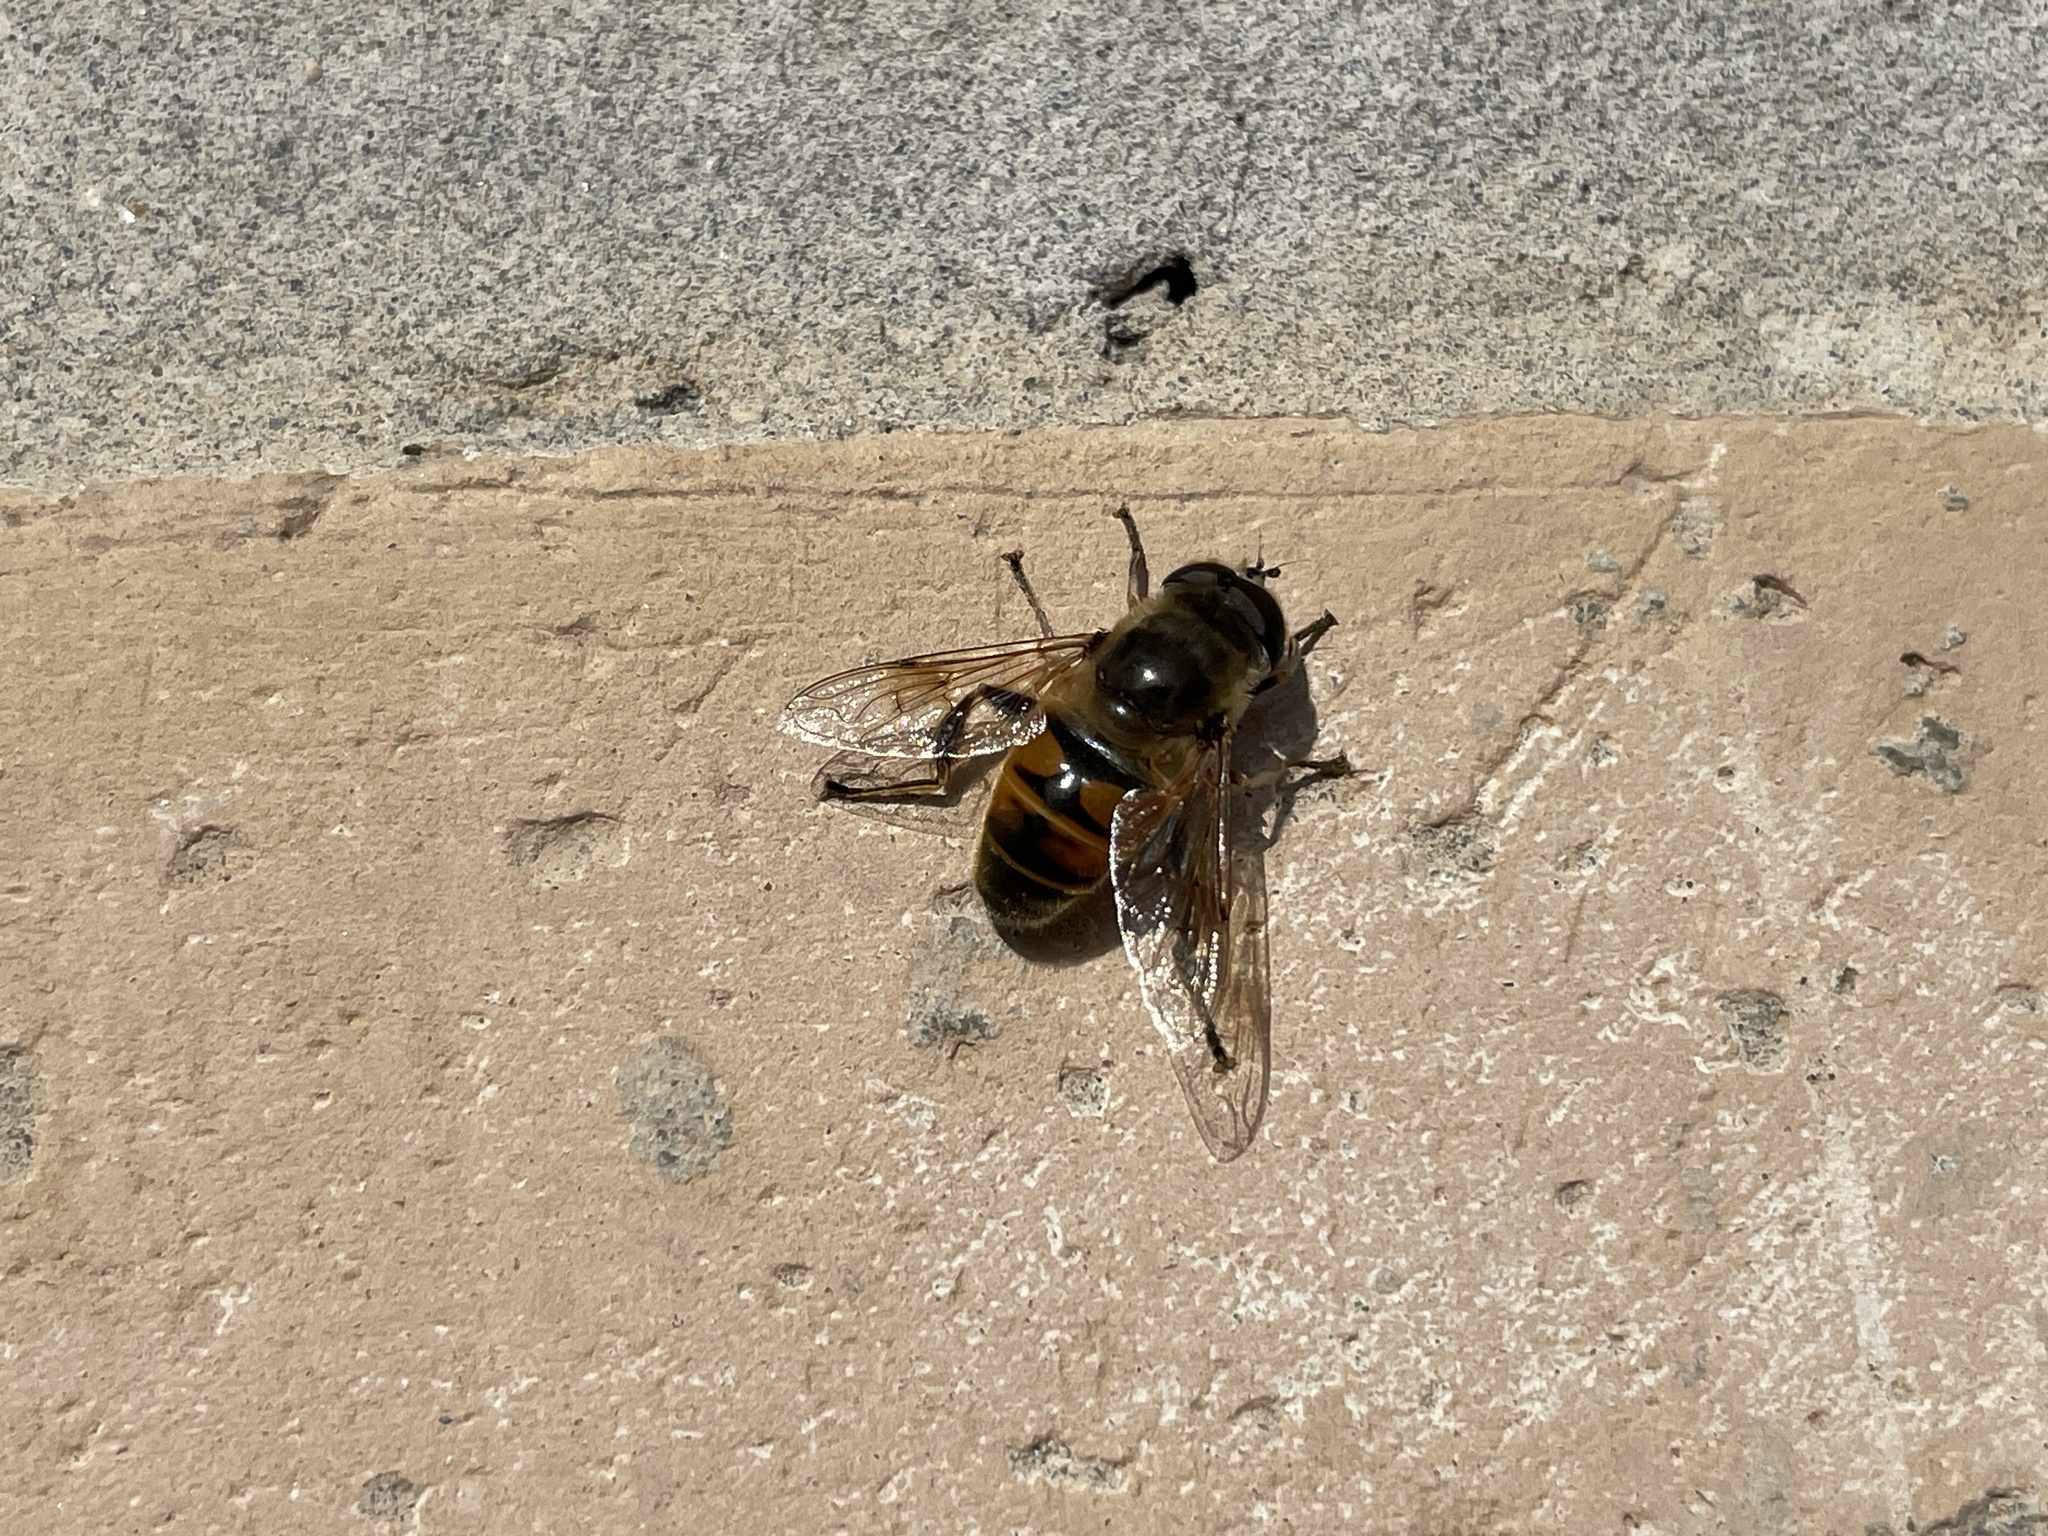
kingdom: Animalia
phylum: Arthropoda
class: Insecta
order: Diptera
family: Syrphidae
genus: Eristalis
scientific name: Eristalis tenax
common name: Drone fly
